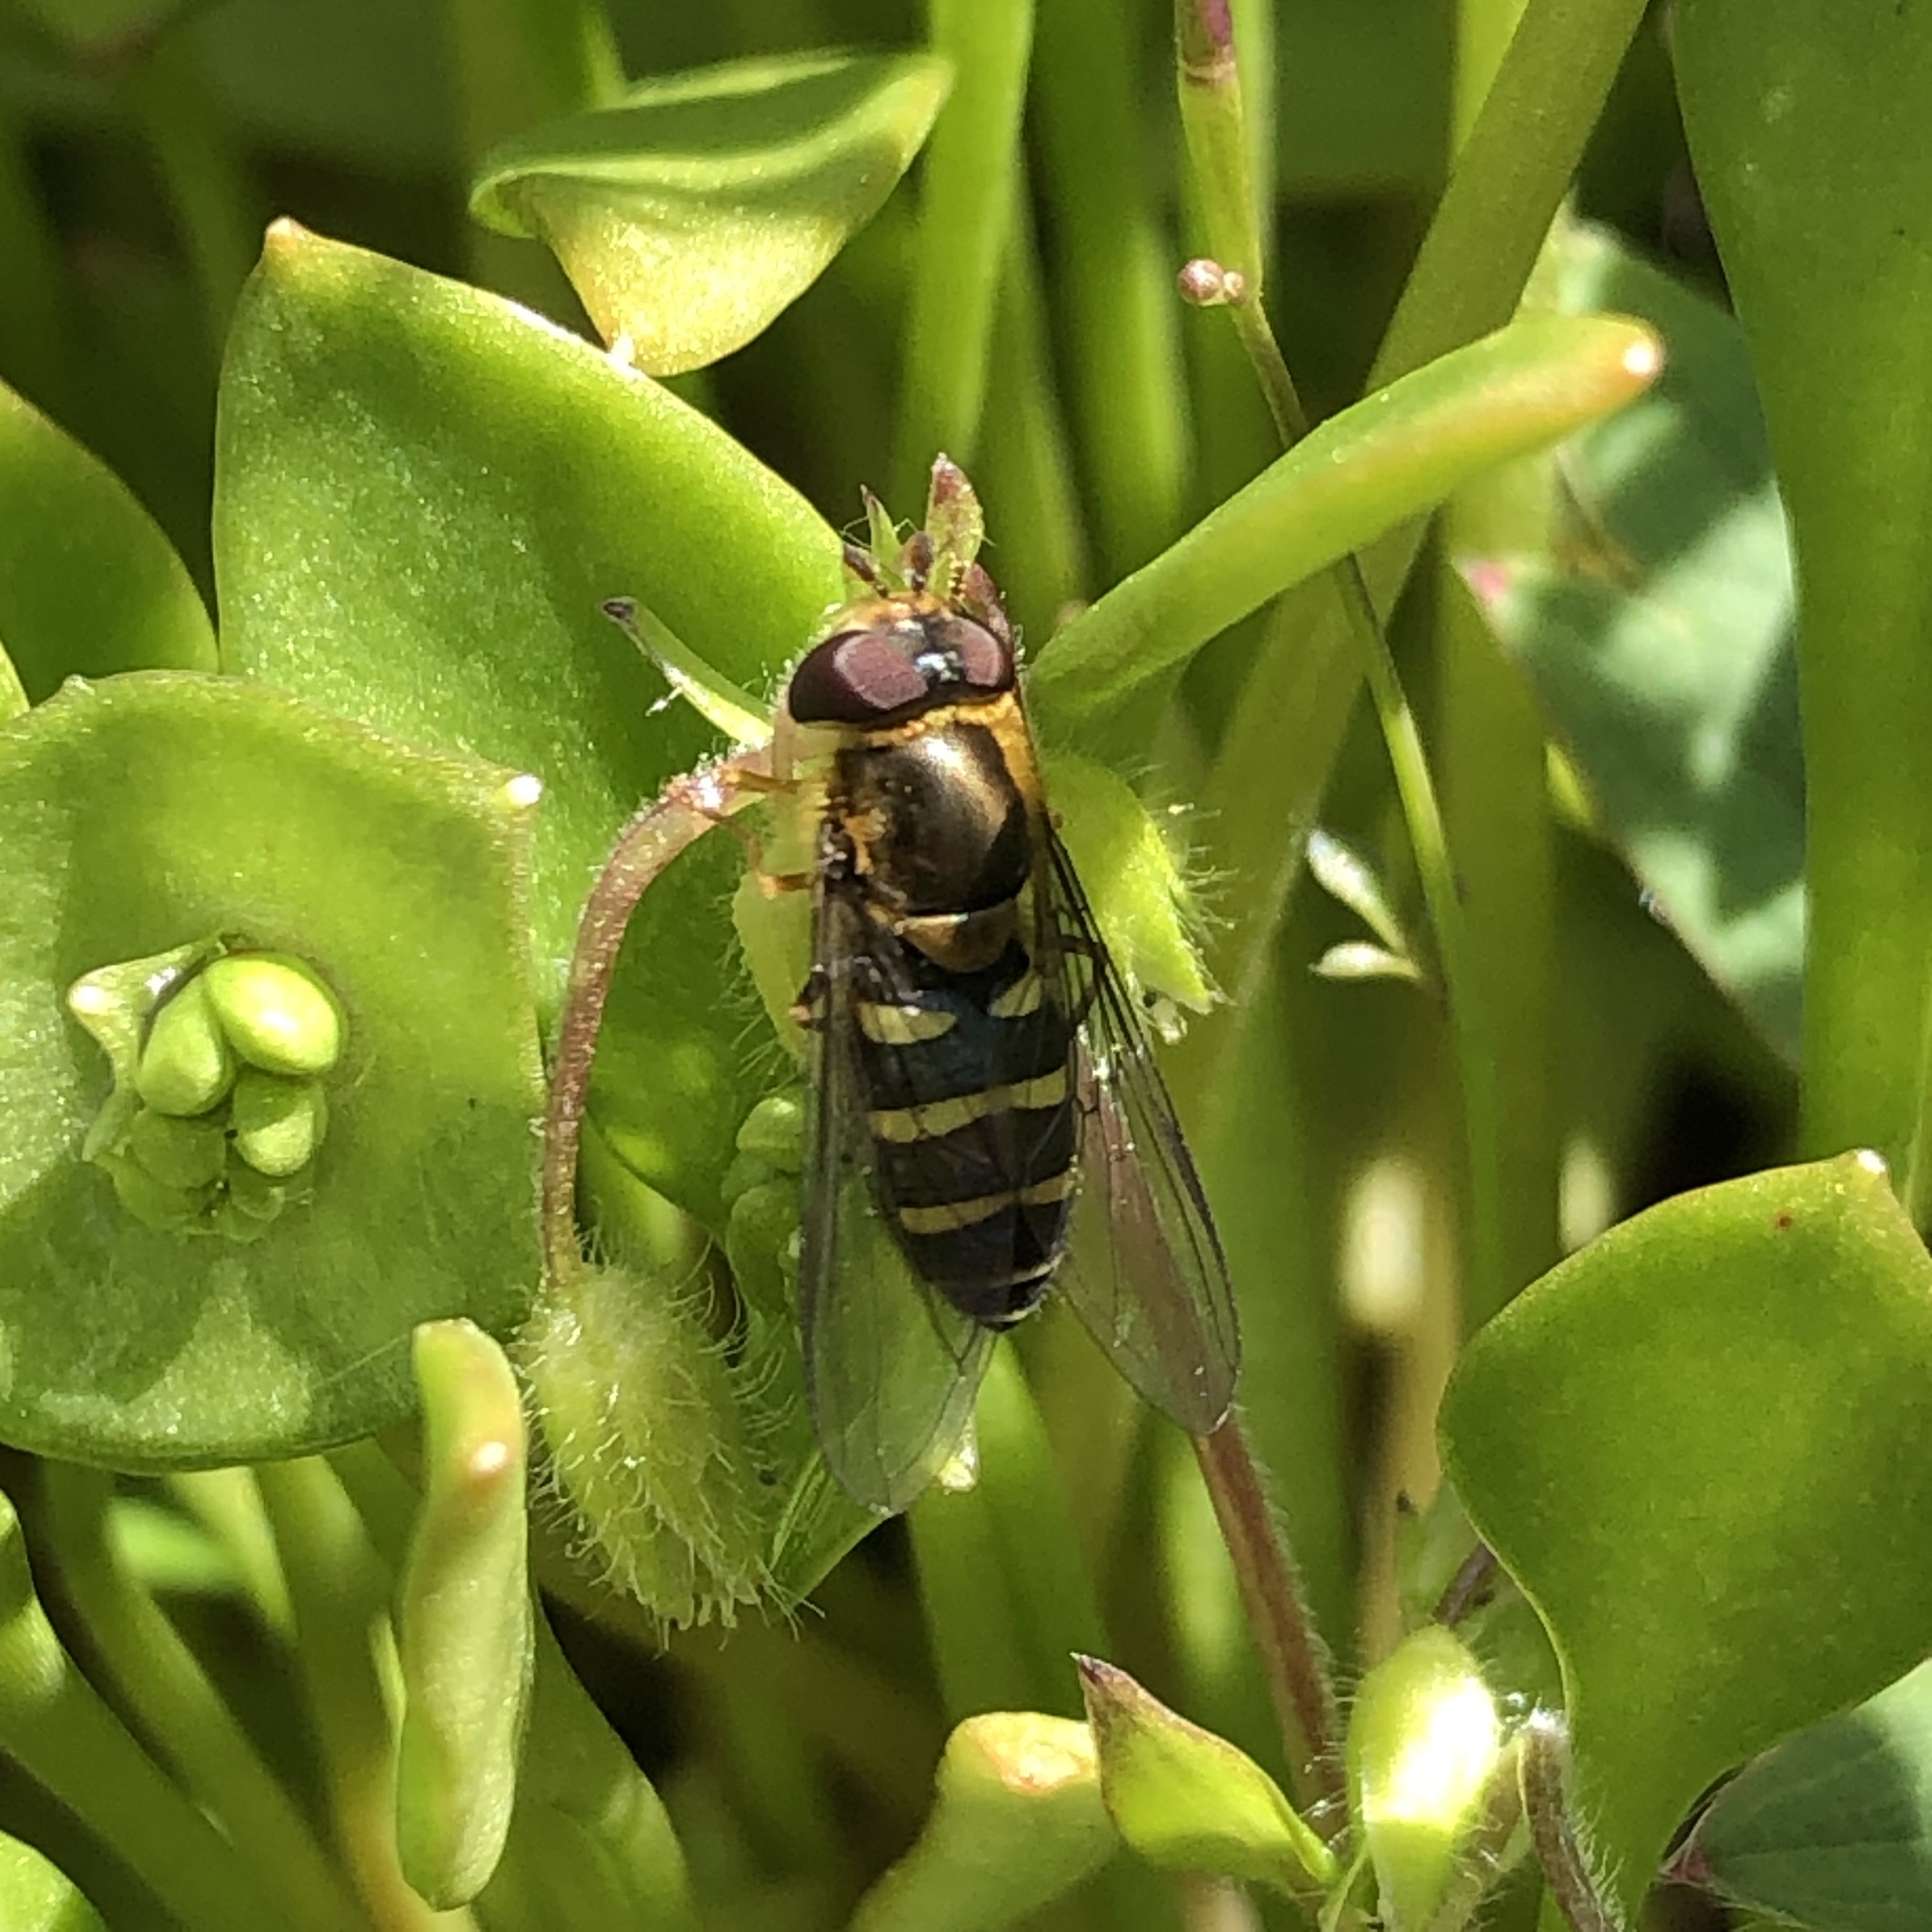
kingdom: Animalia
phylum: Arthropoda
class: Insecta
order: Diptera
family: Syrphidae
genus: Syrphus
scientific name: Syrphus opinator
